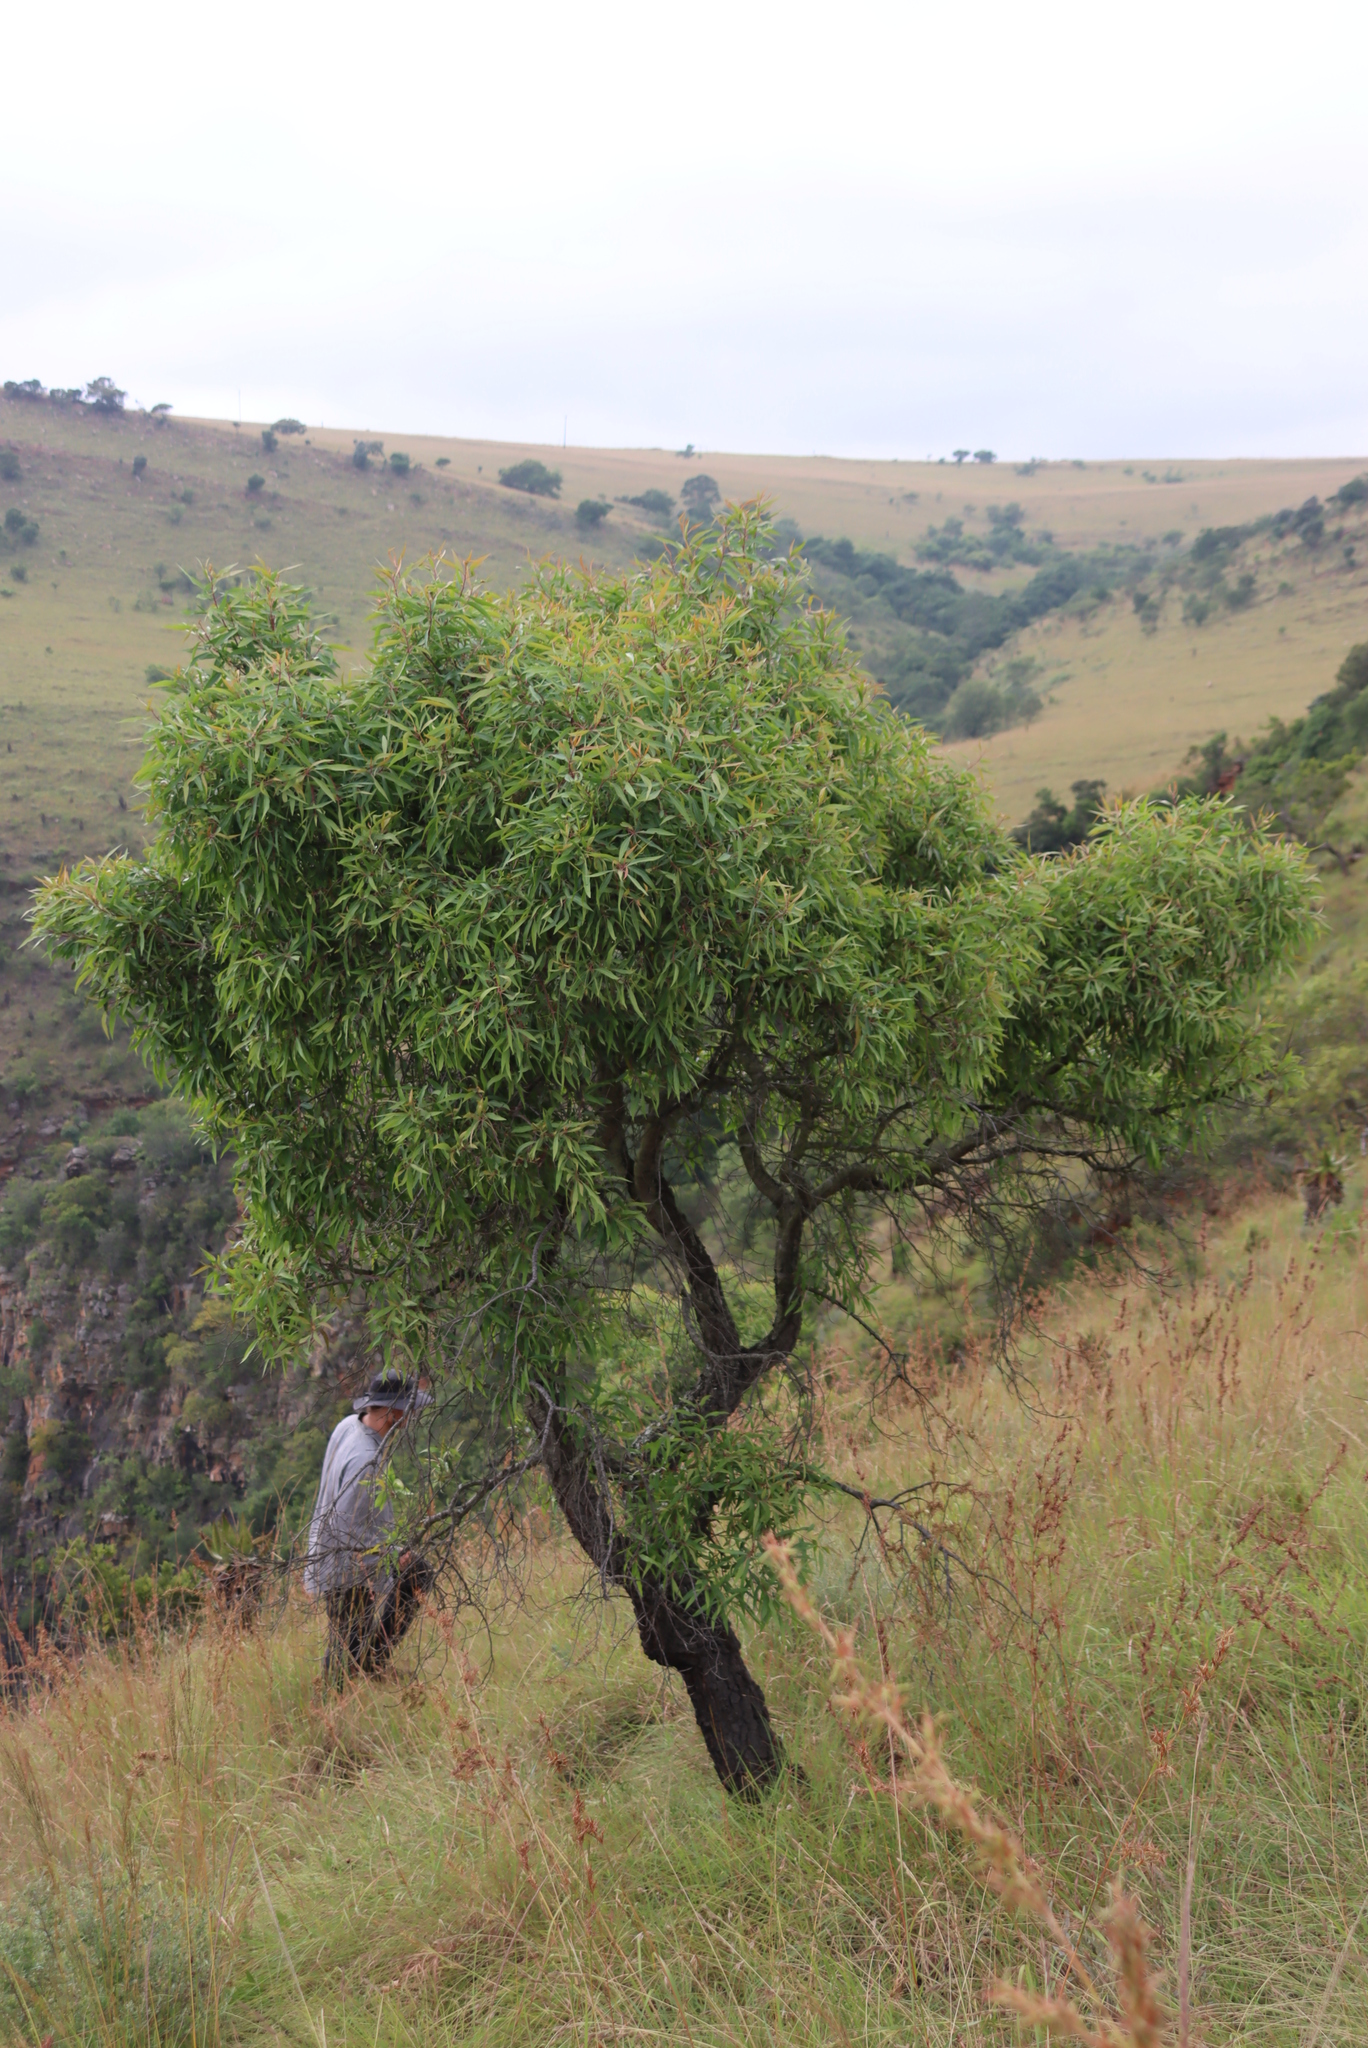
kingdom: Plantae
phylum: Tracheophyta
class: Magnoliopsida
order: Proteales
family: Proteaceae
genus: Faurea
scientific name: Faurea saligna
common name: African bean
